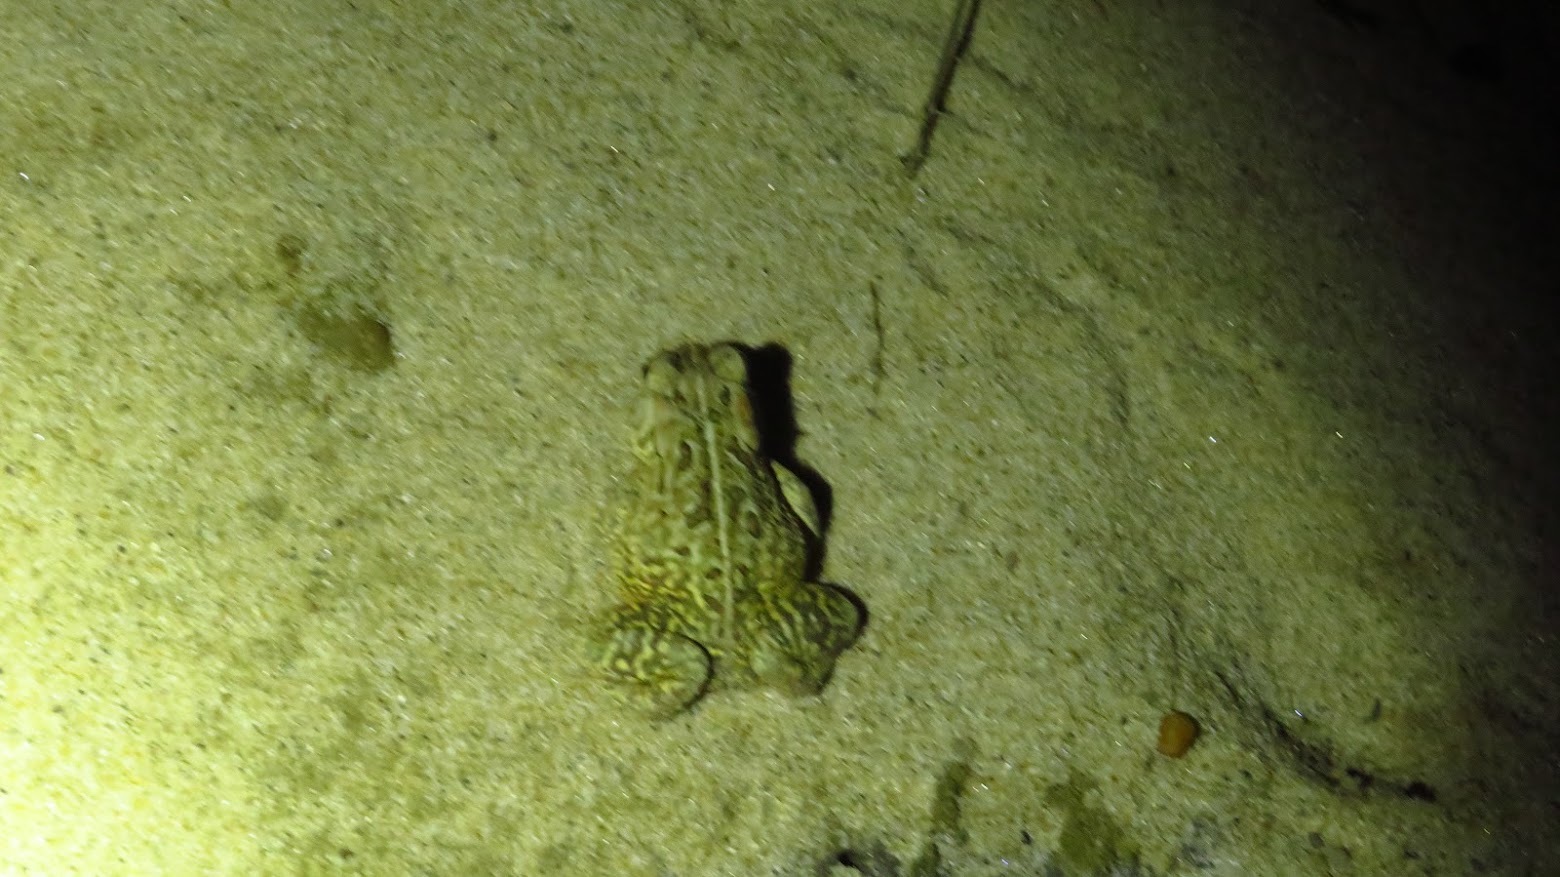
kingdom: Animalia
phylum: Chordata
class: Amphibia
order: Anura
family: Bufonidae
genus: Anaxyrus
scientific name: Anaxyrus fowleri
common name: Fowler's toad
